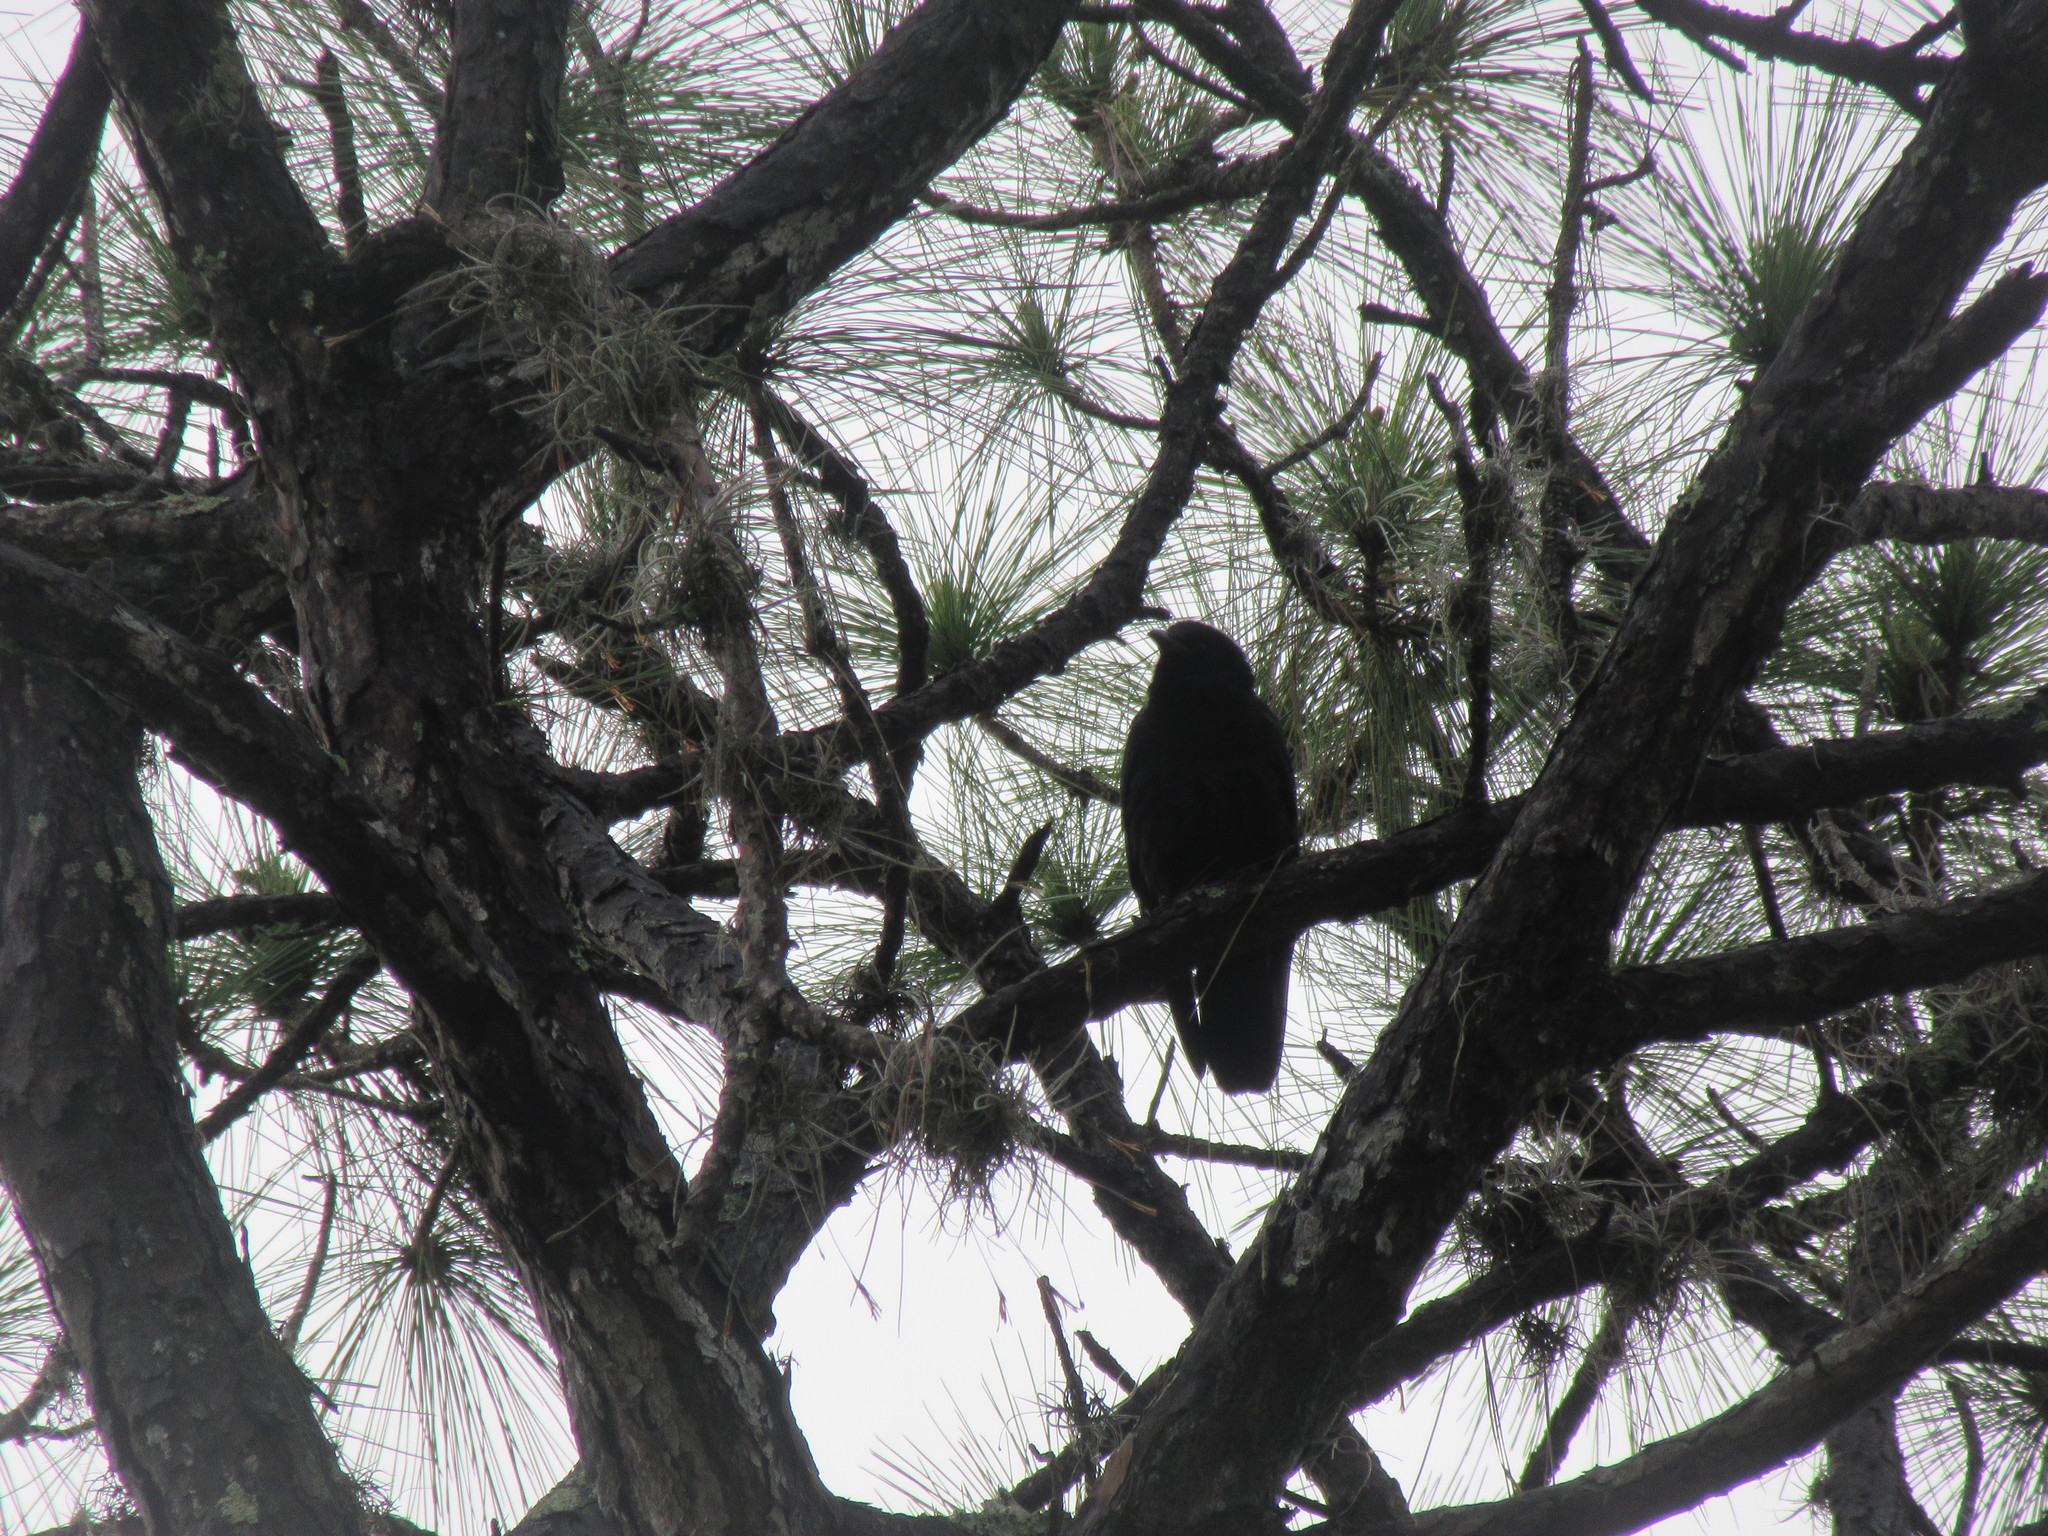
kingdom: Animalia
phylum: Chordata
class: Aves
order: Passeriformes
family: Corvidae
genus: Corvus
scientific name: Corvus ossifragus
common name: Fish crow
